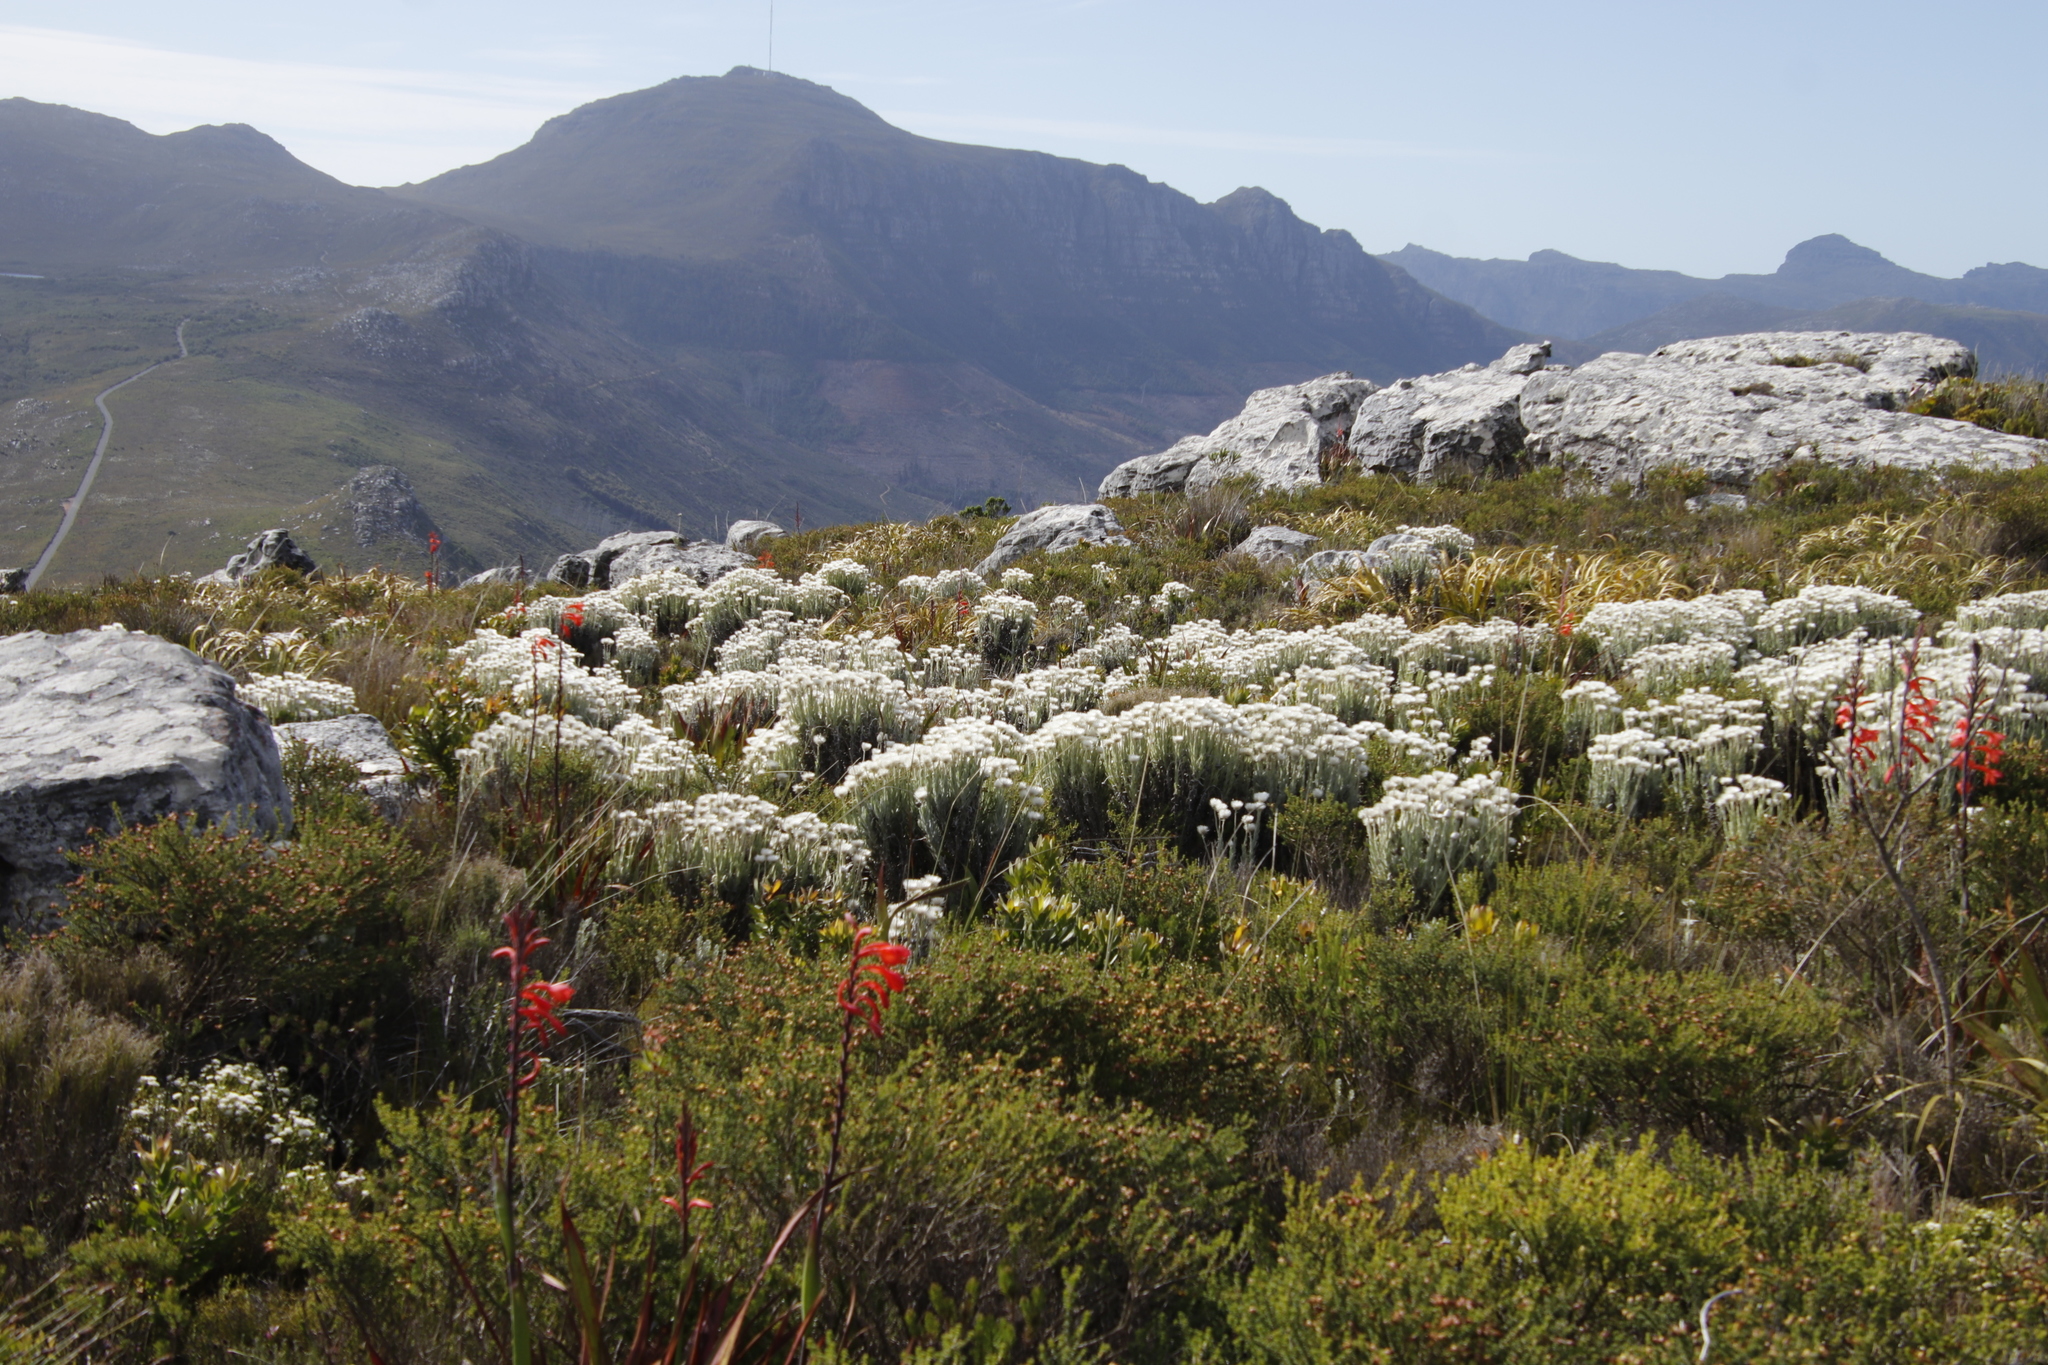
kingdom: Plantae
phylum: Tracheophyta
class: Magnoliopsida
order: Asterales
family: Asteraceae
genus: Syncarpha
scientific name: Syncarpha vestita
